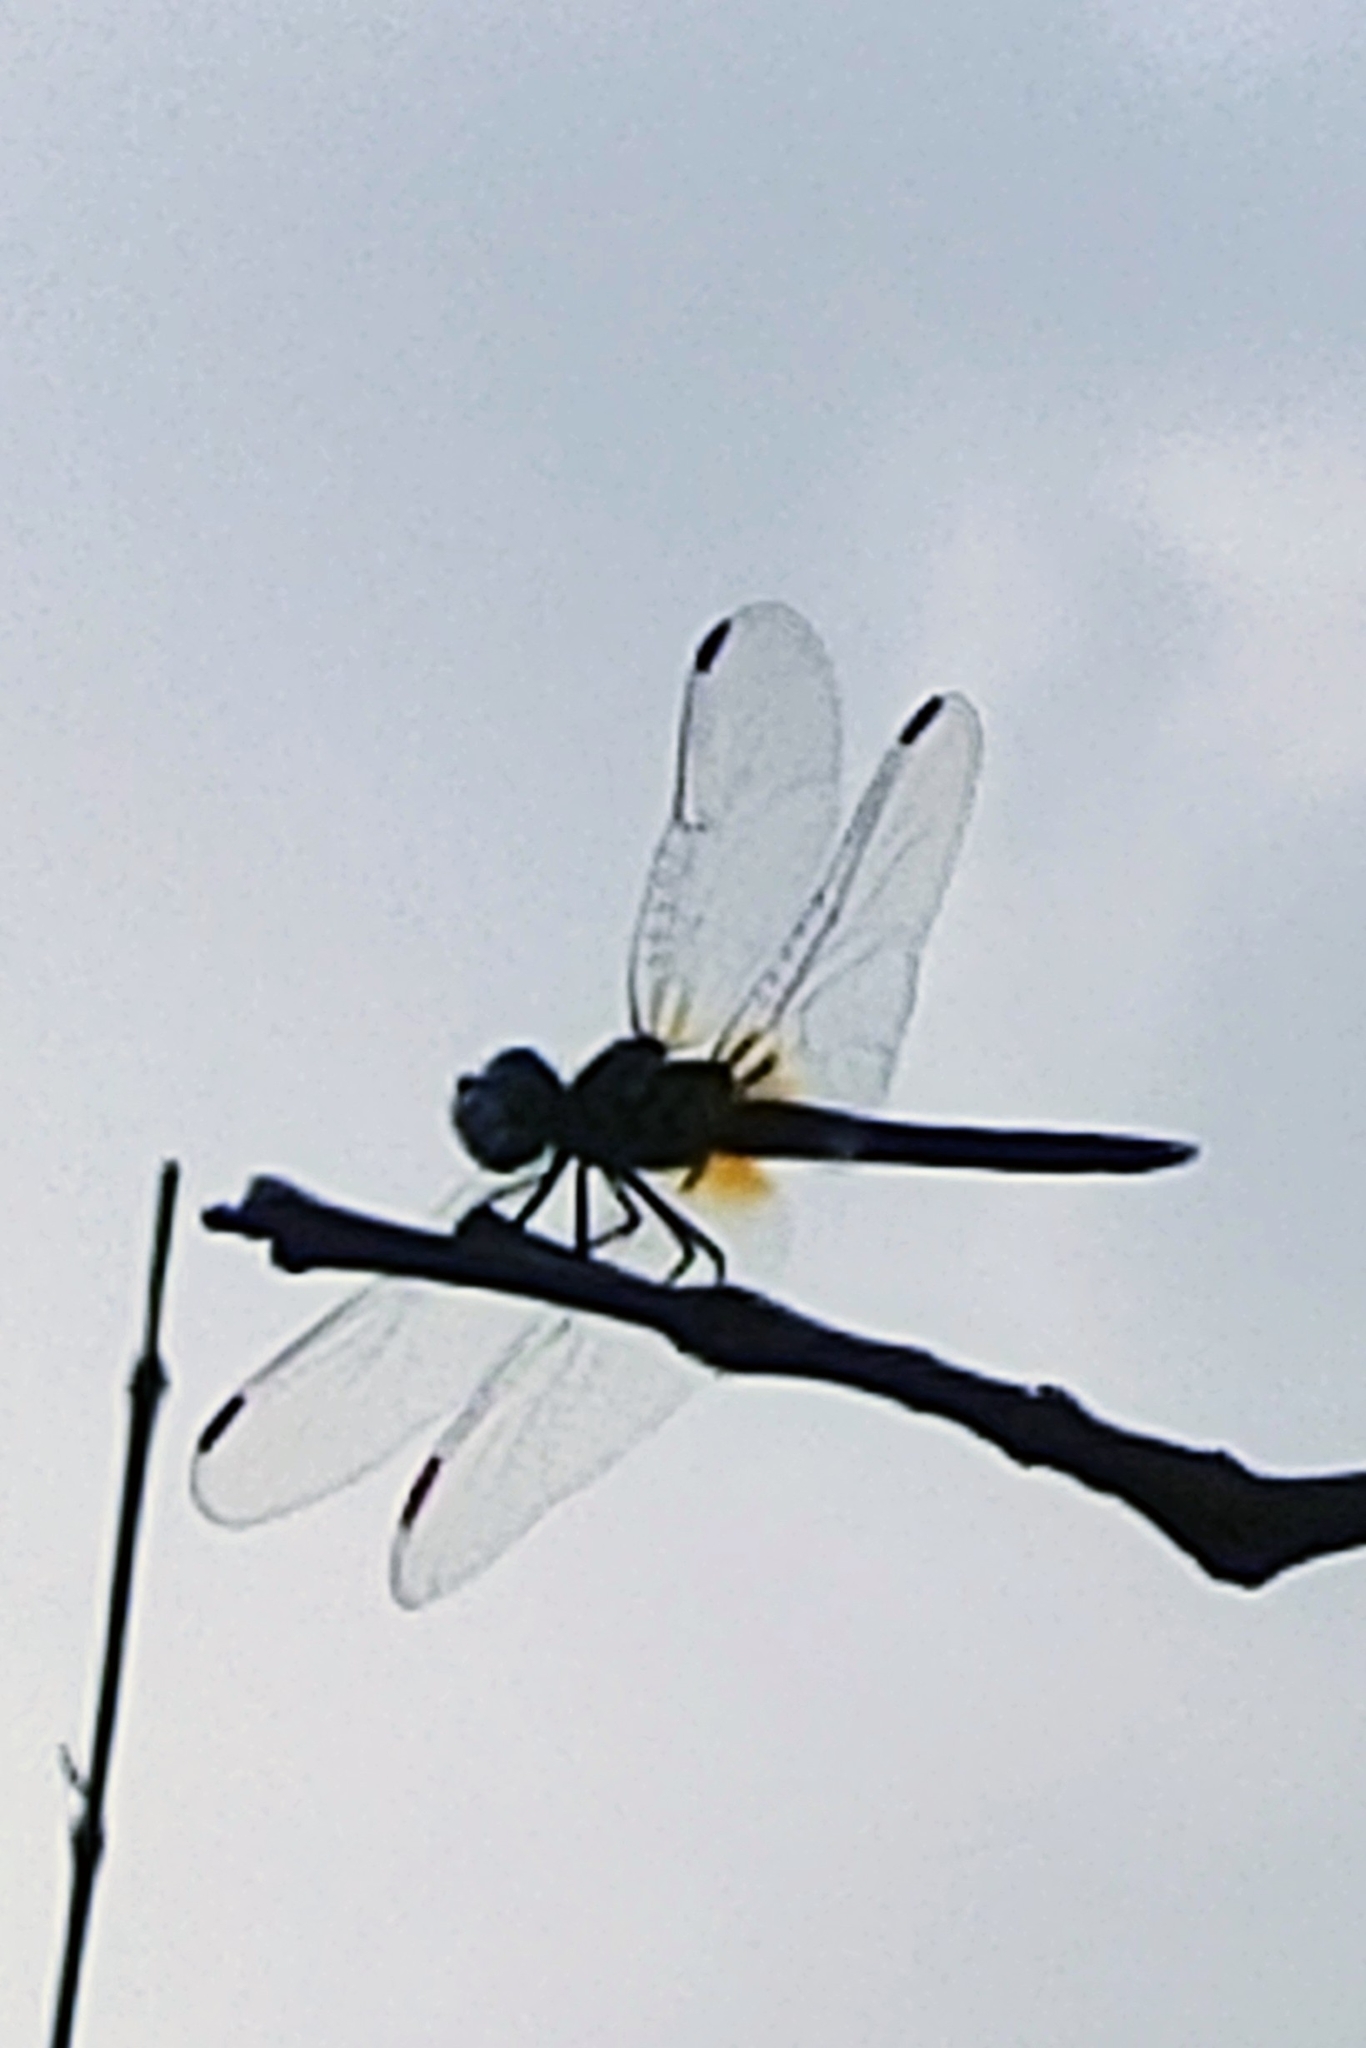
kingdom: Animalia
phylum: Arthropoda
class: Insecta
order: Odonata
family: Libellulidae
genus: Pachydiplax
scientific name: Pachydiplax longipennis
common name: Blue dasher
